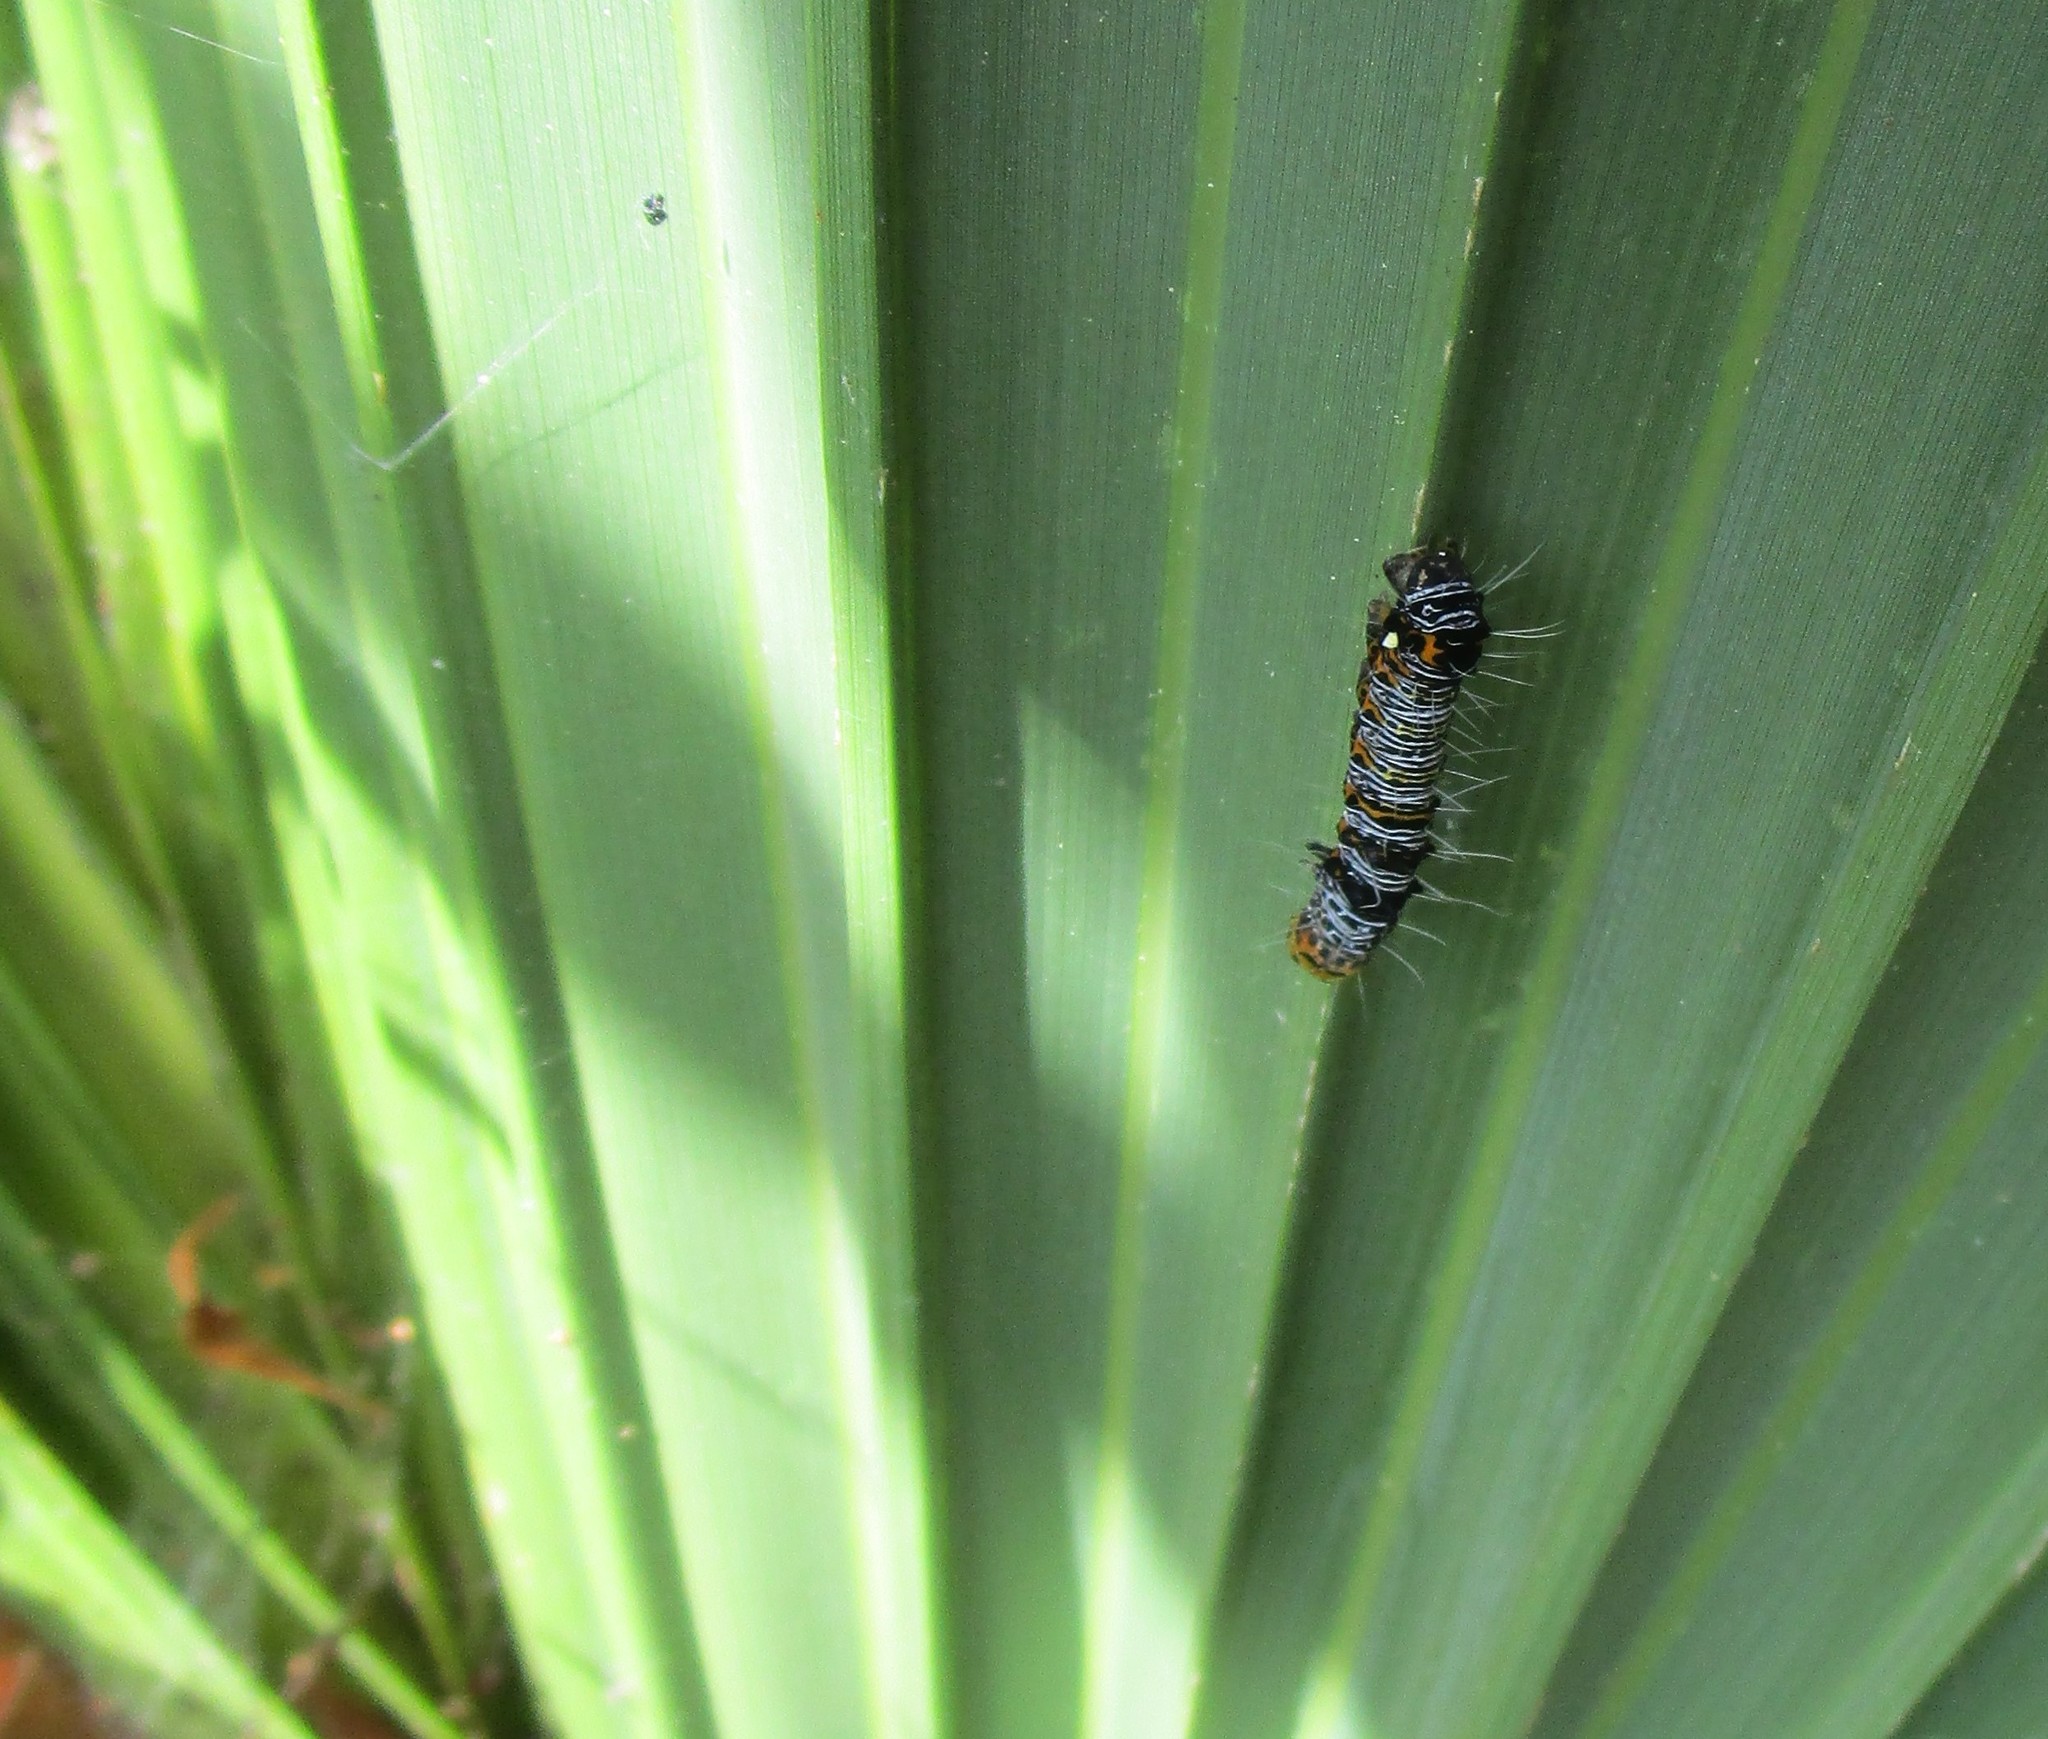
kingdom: Animalia
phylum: Arthropoda
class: Insecta
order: Lepidoptera
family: Noctuidae
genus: Alypia
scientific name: Alypia octomaculata
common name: Eight-spotted forester
